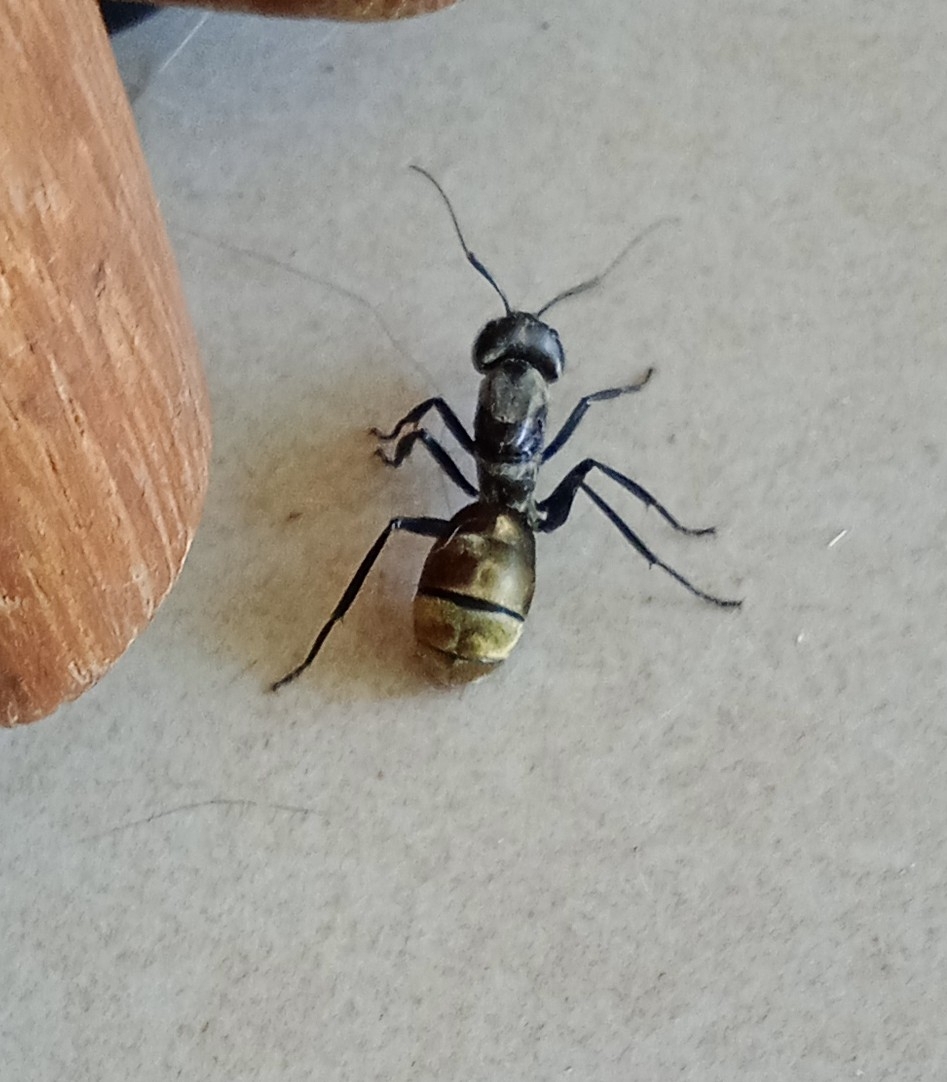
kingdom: Animalia
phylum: Arthropoda
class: Insecta
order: Hymenoptera
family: Formicidae
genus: Camponotus
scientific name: Camponotus sericeiventris
